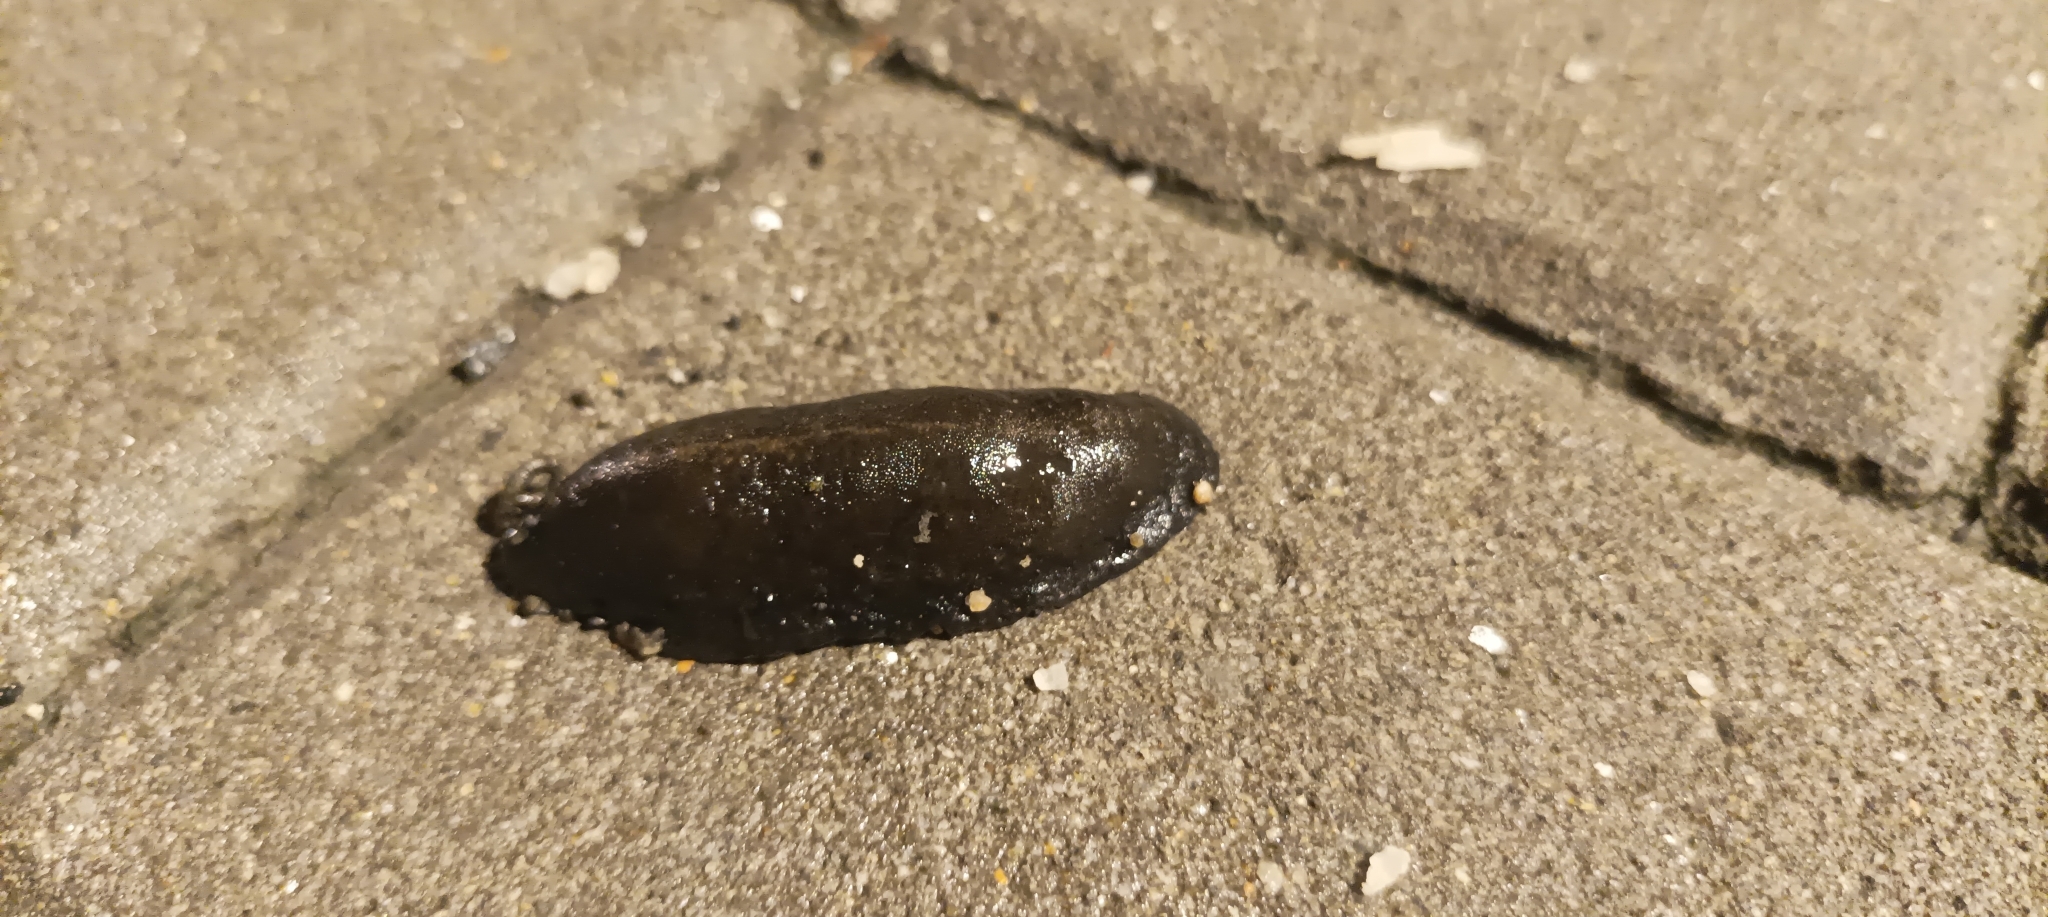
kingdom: Animalia
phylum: Mollusca
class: Gastropoda
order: Systellommatophora
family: Veronicellidae
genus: Laevicaulis
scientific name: Laevicaulis alte
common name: Tropical leatherleaf
